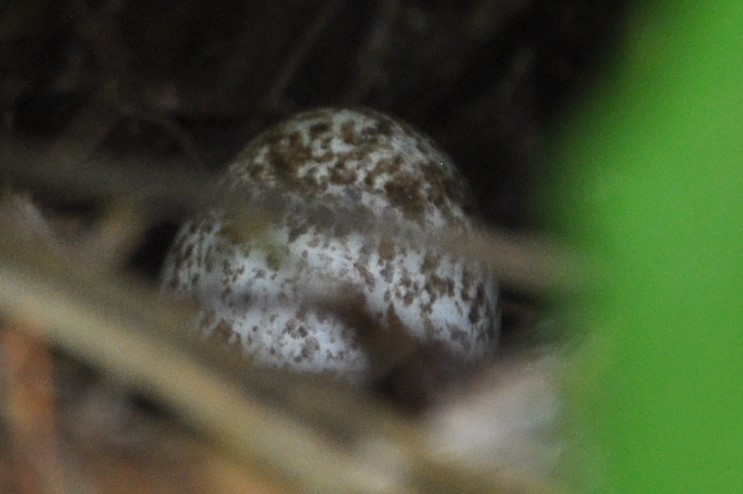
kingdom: Animalia
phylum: Chordata
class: Aves
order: Passeriformes
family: Cardinalidae
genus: Cardinalis
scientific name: Cardinalis cardinalis
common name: Northern cardinal
